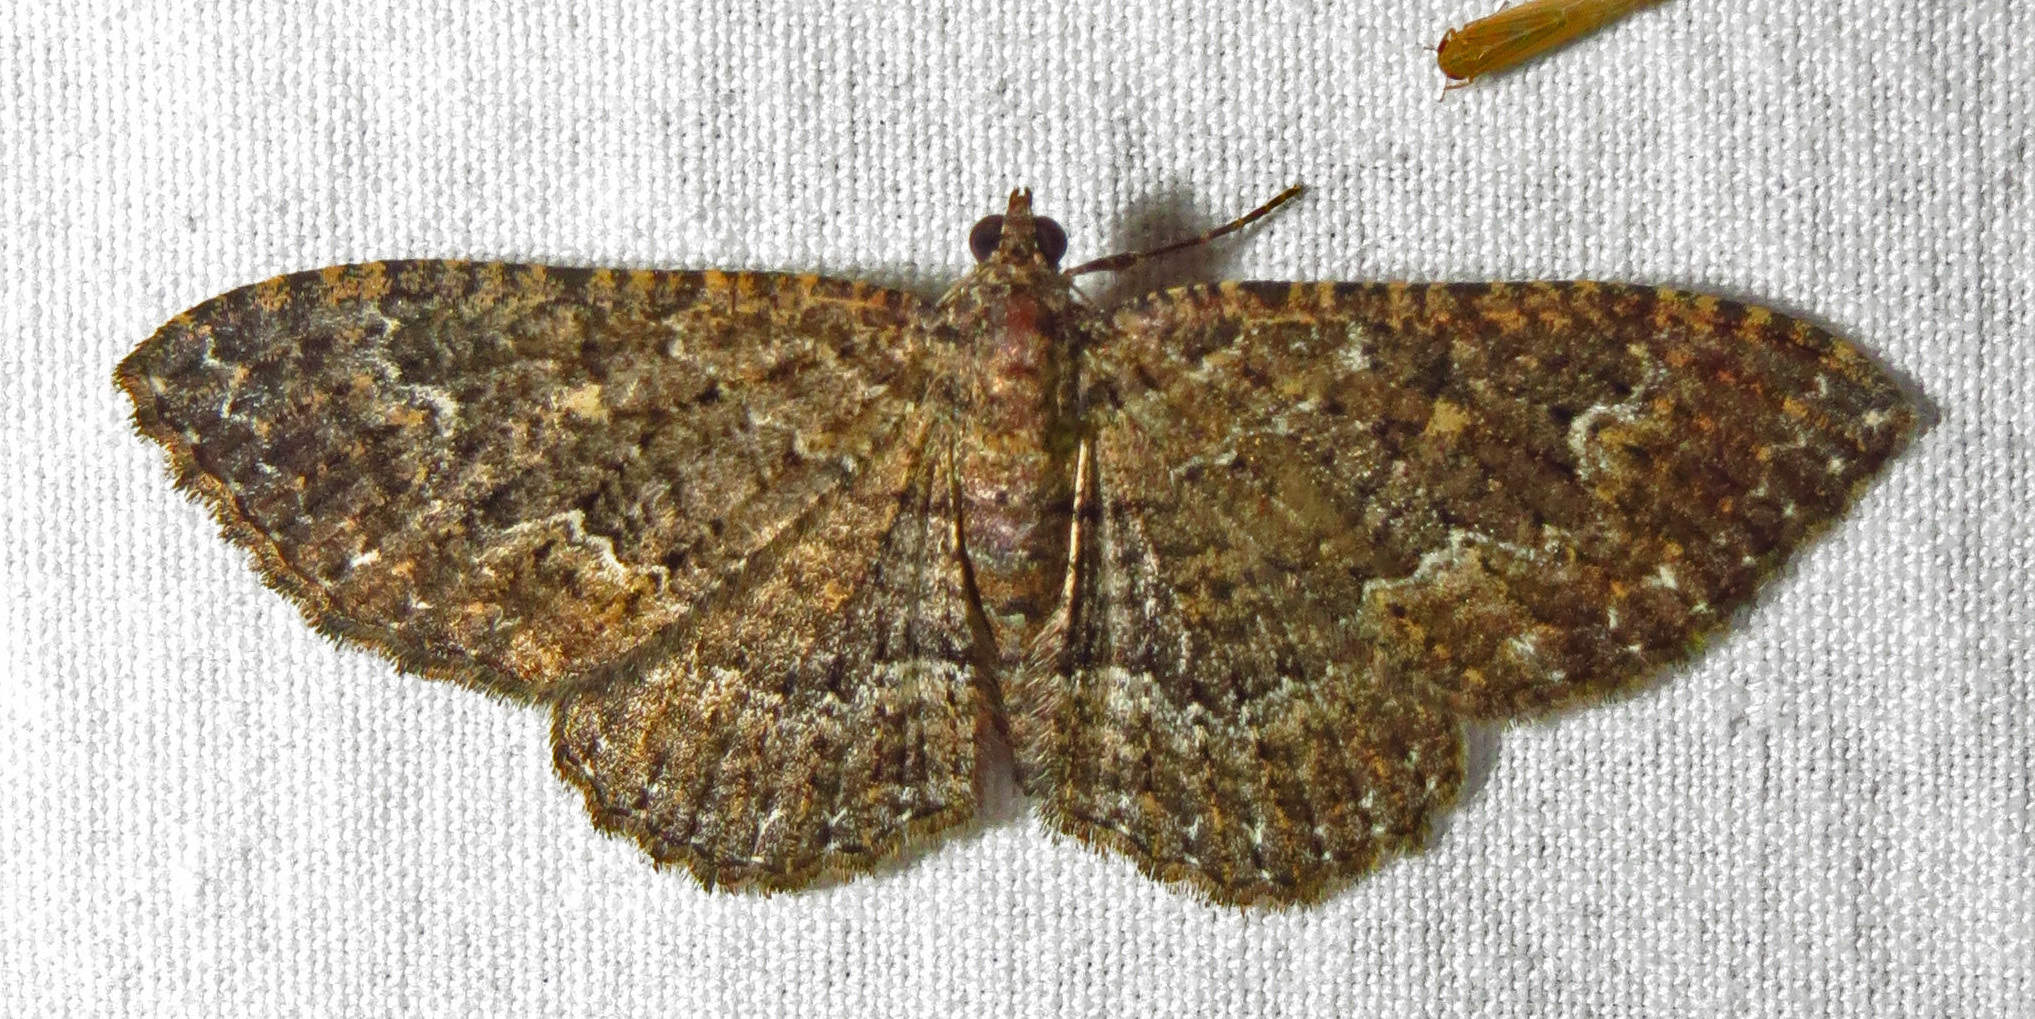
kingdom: Animalia
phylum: Arthropoda
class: Insecta
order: Lepidoptera
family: Geometridae
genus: Disclisioprocta
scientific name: Disclisioprocta stellata
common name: Somber carpet
